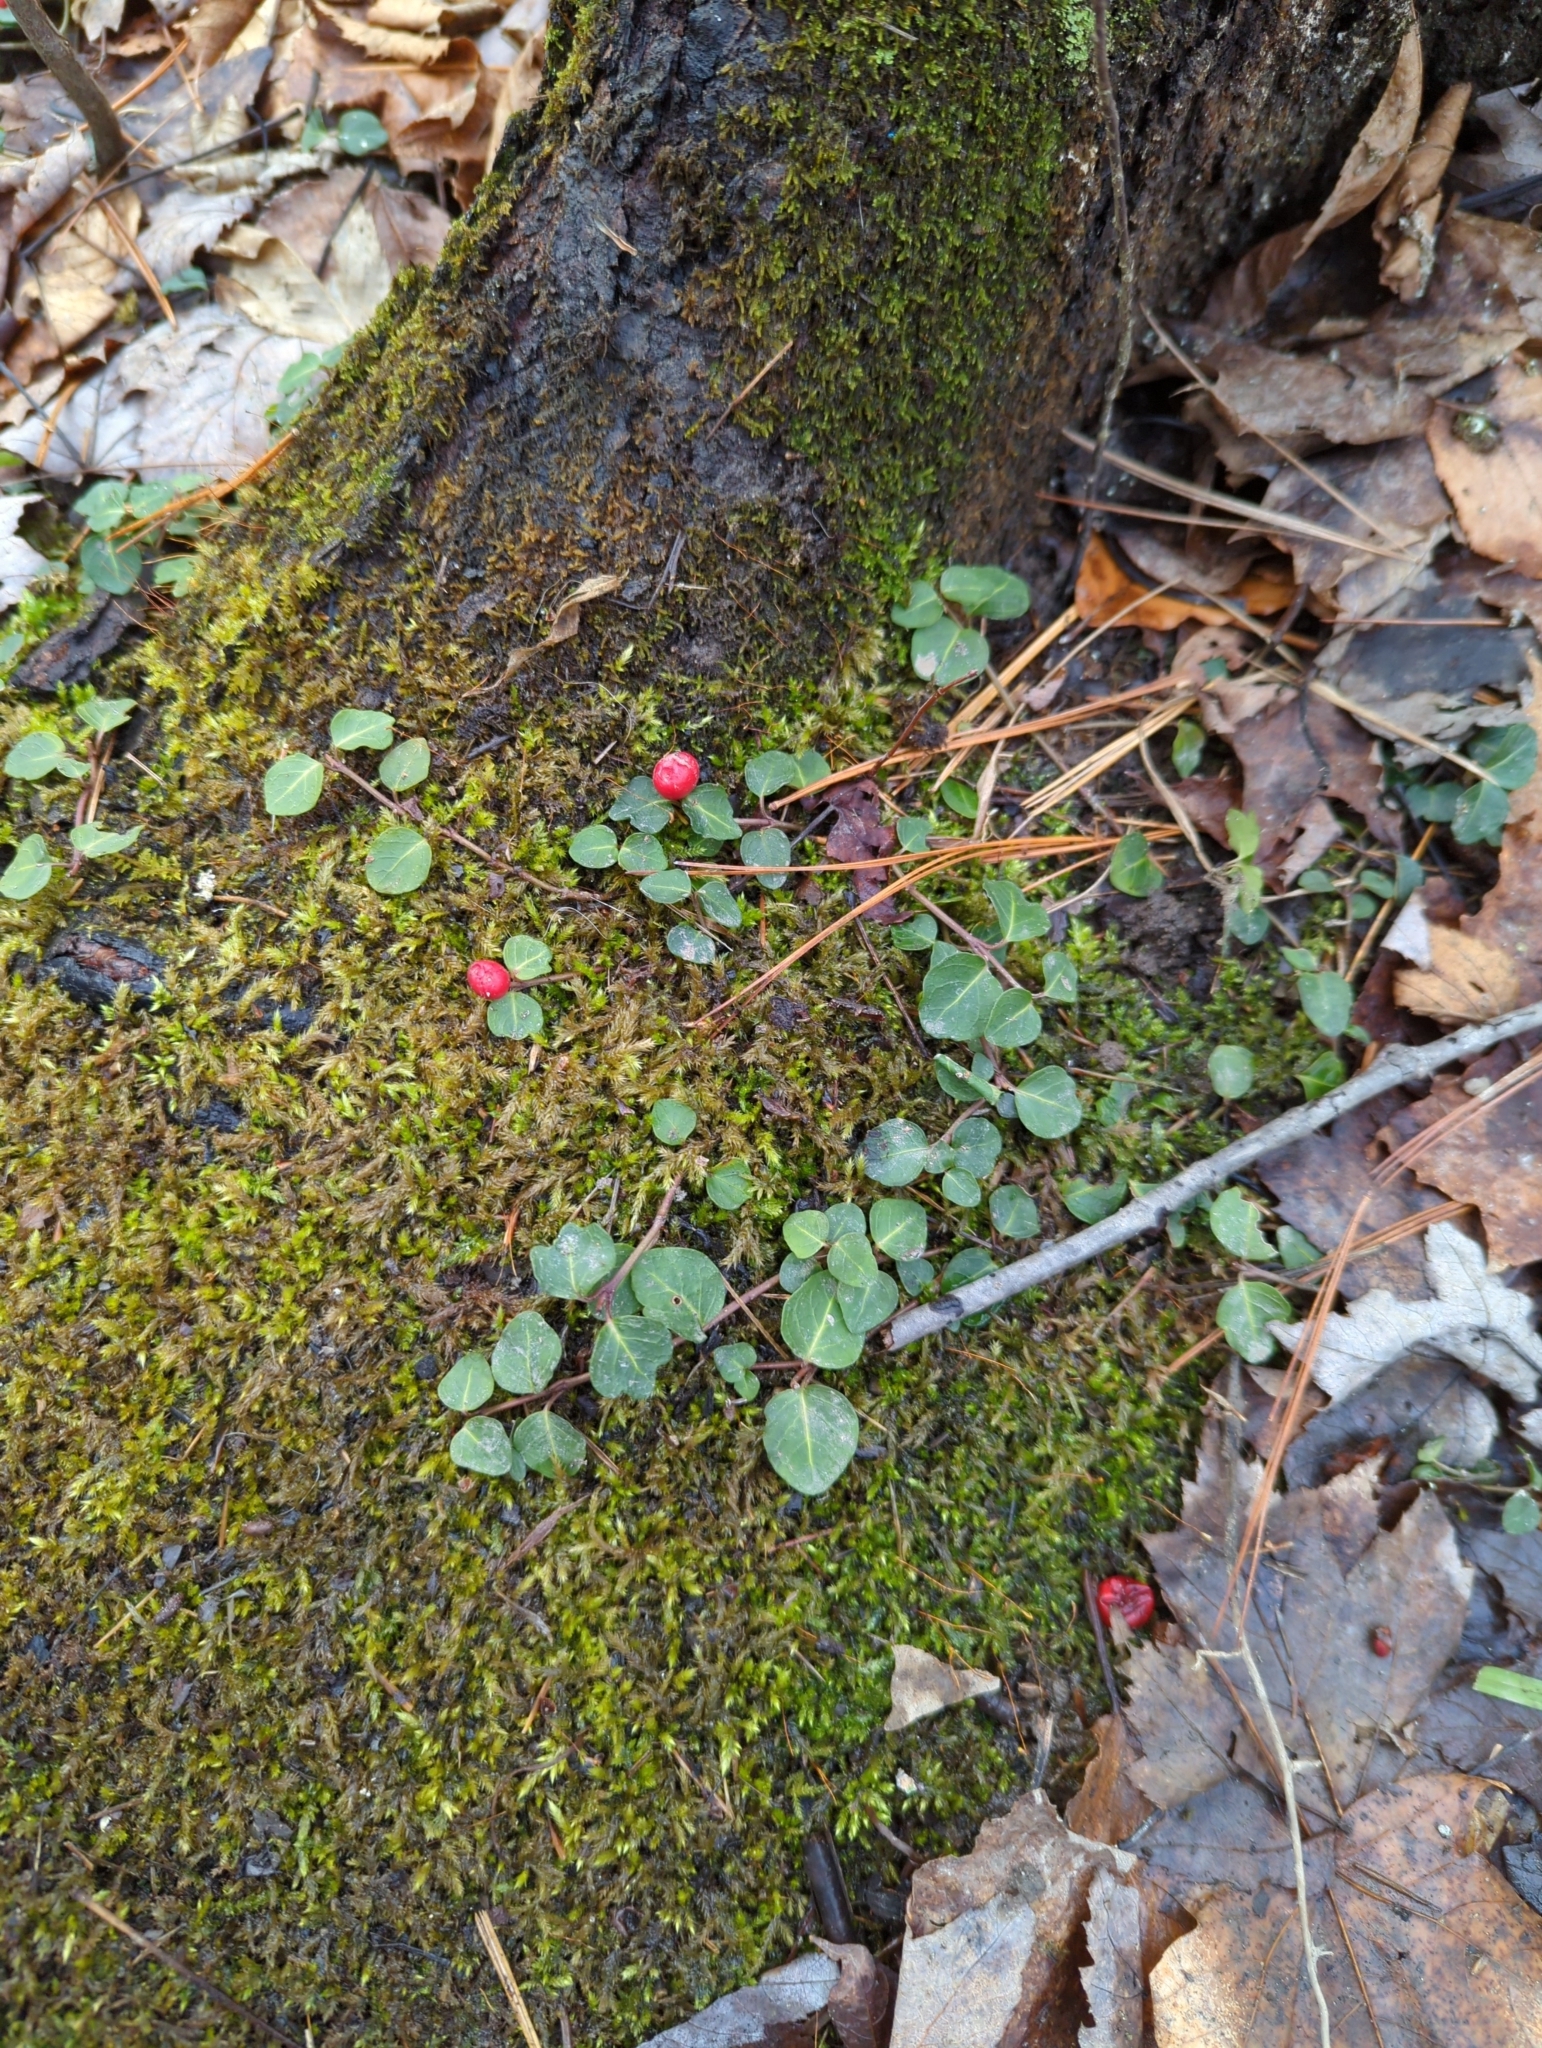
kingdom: Plantae
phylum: Tracheophyta
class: Magnoliopsida
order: Gentianales
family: Rubiaceae
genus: Mitchella
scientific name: Mitchella repens
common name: Partridge-berry
